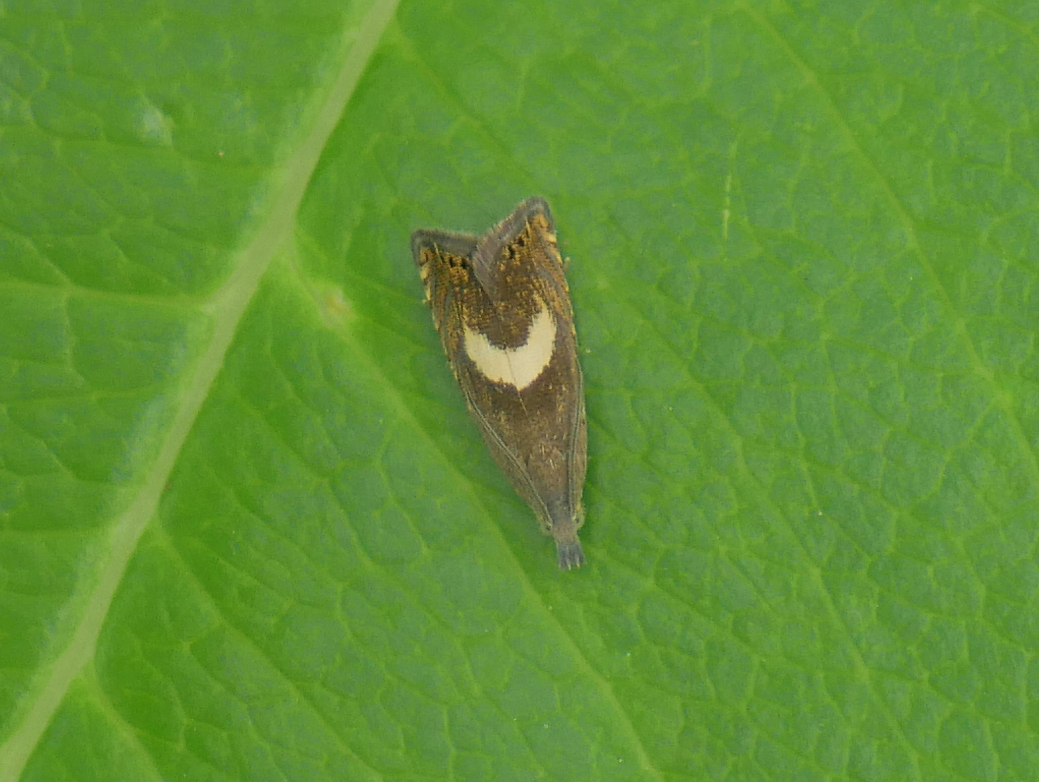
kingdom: Animalia
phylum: Arthropoda
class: Insecta
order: Lepidoptera
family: Tortricidae
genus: Dichrorampha
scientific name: Dichrorampha petiverella
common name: Common drill
